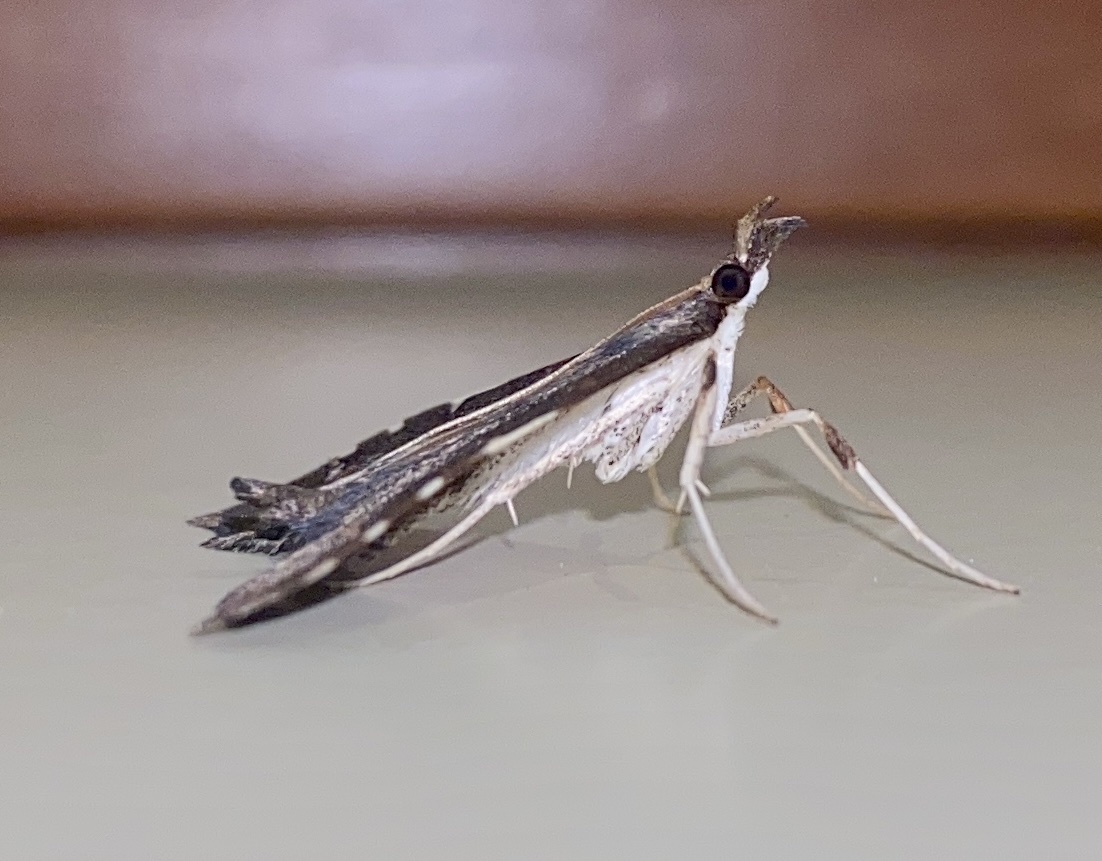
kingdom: Animalia
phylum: Arthropoda
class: Insecta
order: Lepidoptera
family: Crambidae
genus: Deana
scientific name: Deana hybreasalis
